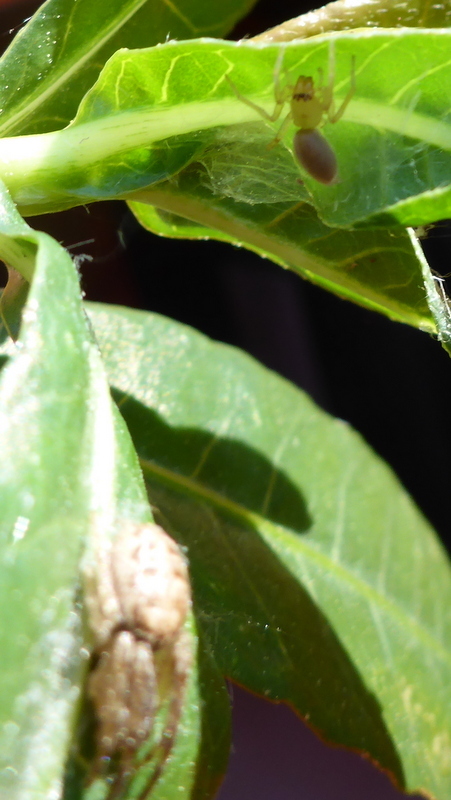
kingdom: Animalia
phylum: Arthropoda
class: Arachnida
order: Araneae
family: Araneidae
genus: Larinioides
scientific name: Larinioides cornutus
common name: Furrow orbweaver
